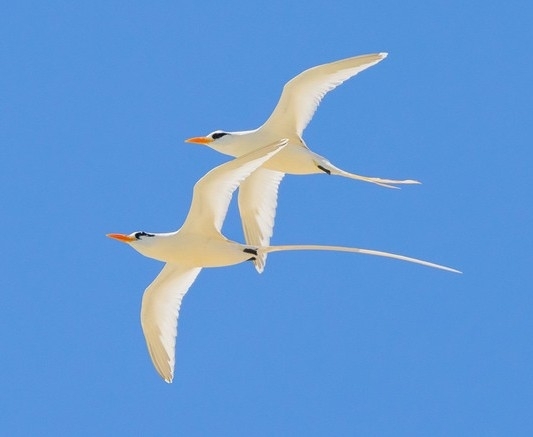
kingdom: Animalia
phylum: Chordata
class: Aves
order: Phaethontiformes
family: Phaethontidae
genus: Phaethon
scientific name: Phaethon lepturus
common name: White-tailed tropicbird
